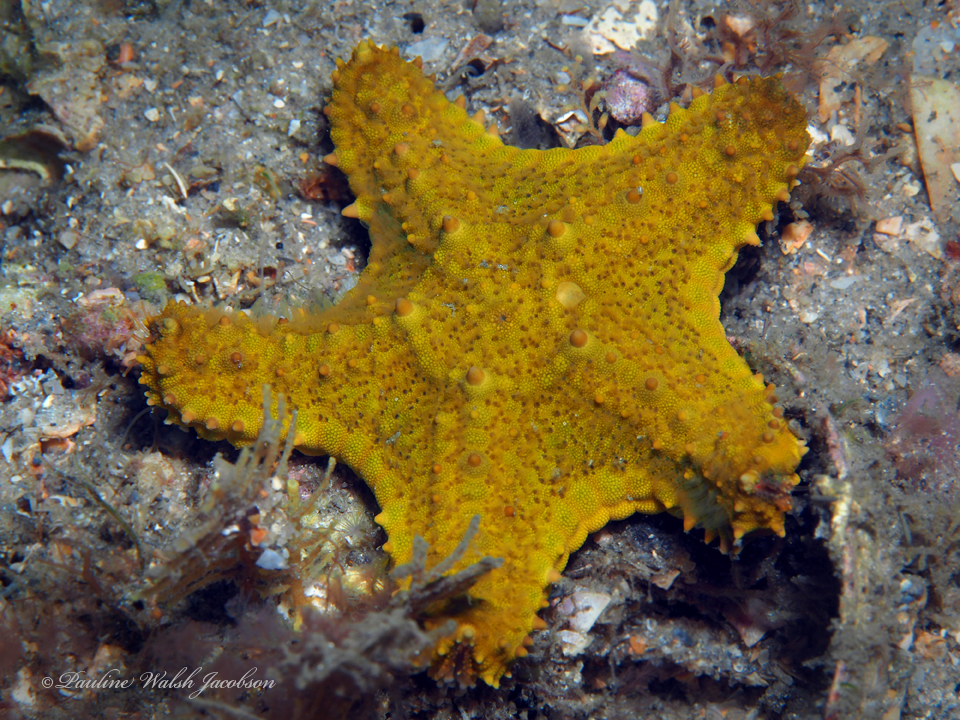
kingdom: Animalia
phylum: Echinodermata
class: Asteroidea
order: Valvatida
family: Oreasteridae
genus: Oreaster
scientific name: Oreaster reticulatus
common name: Cushion sea star
